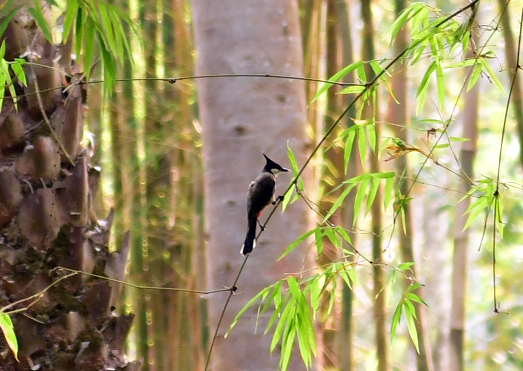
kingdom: Animalia
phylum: Chordata
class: Aves
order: Passeriformes
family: Pycnonotidae
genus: Pycnonotus
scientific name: Pycnonotus jocosus
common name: Red-whiskered bulbul
